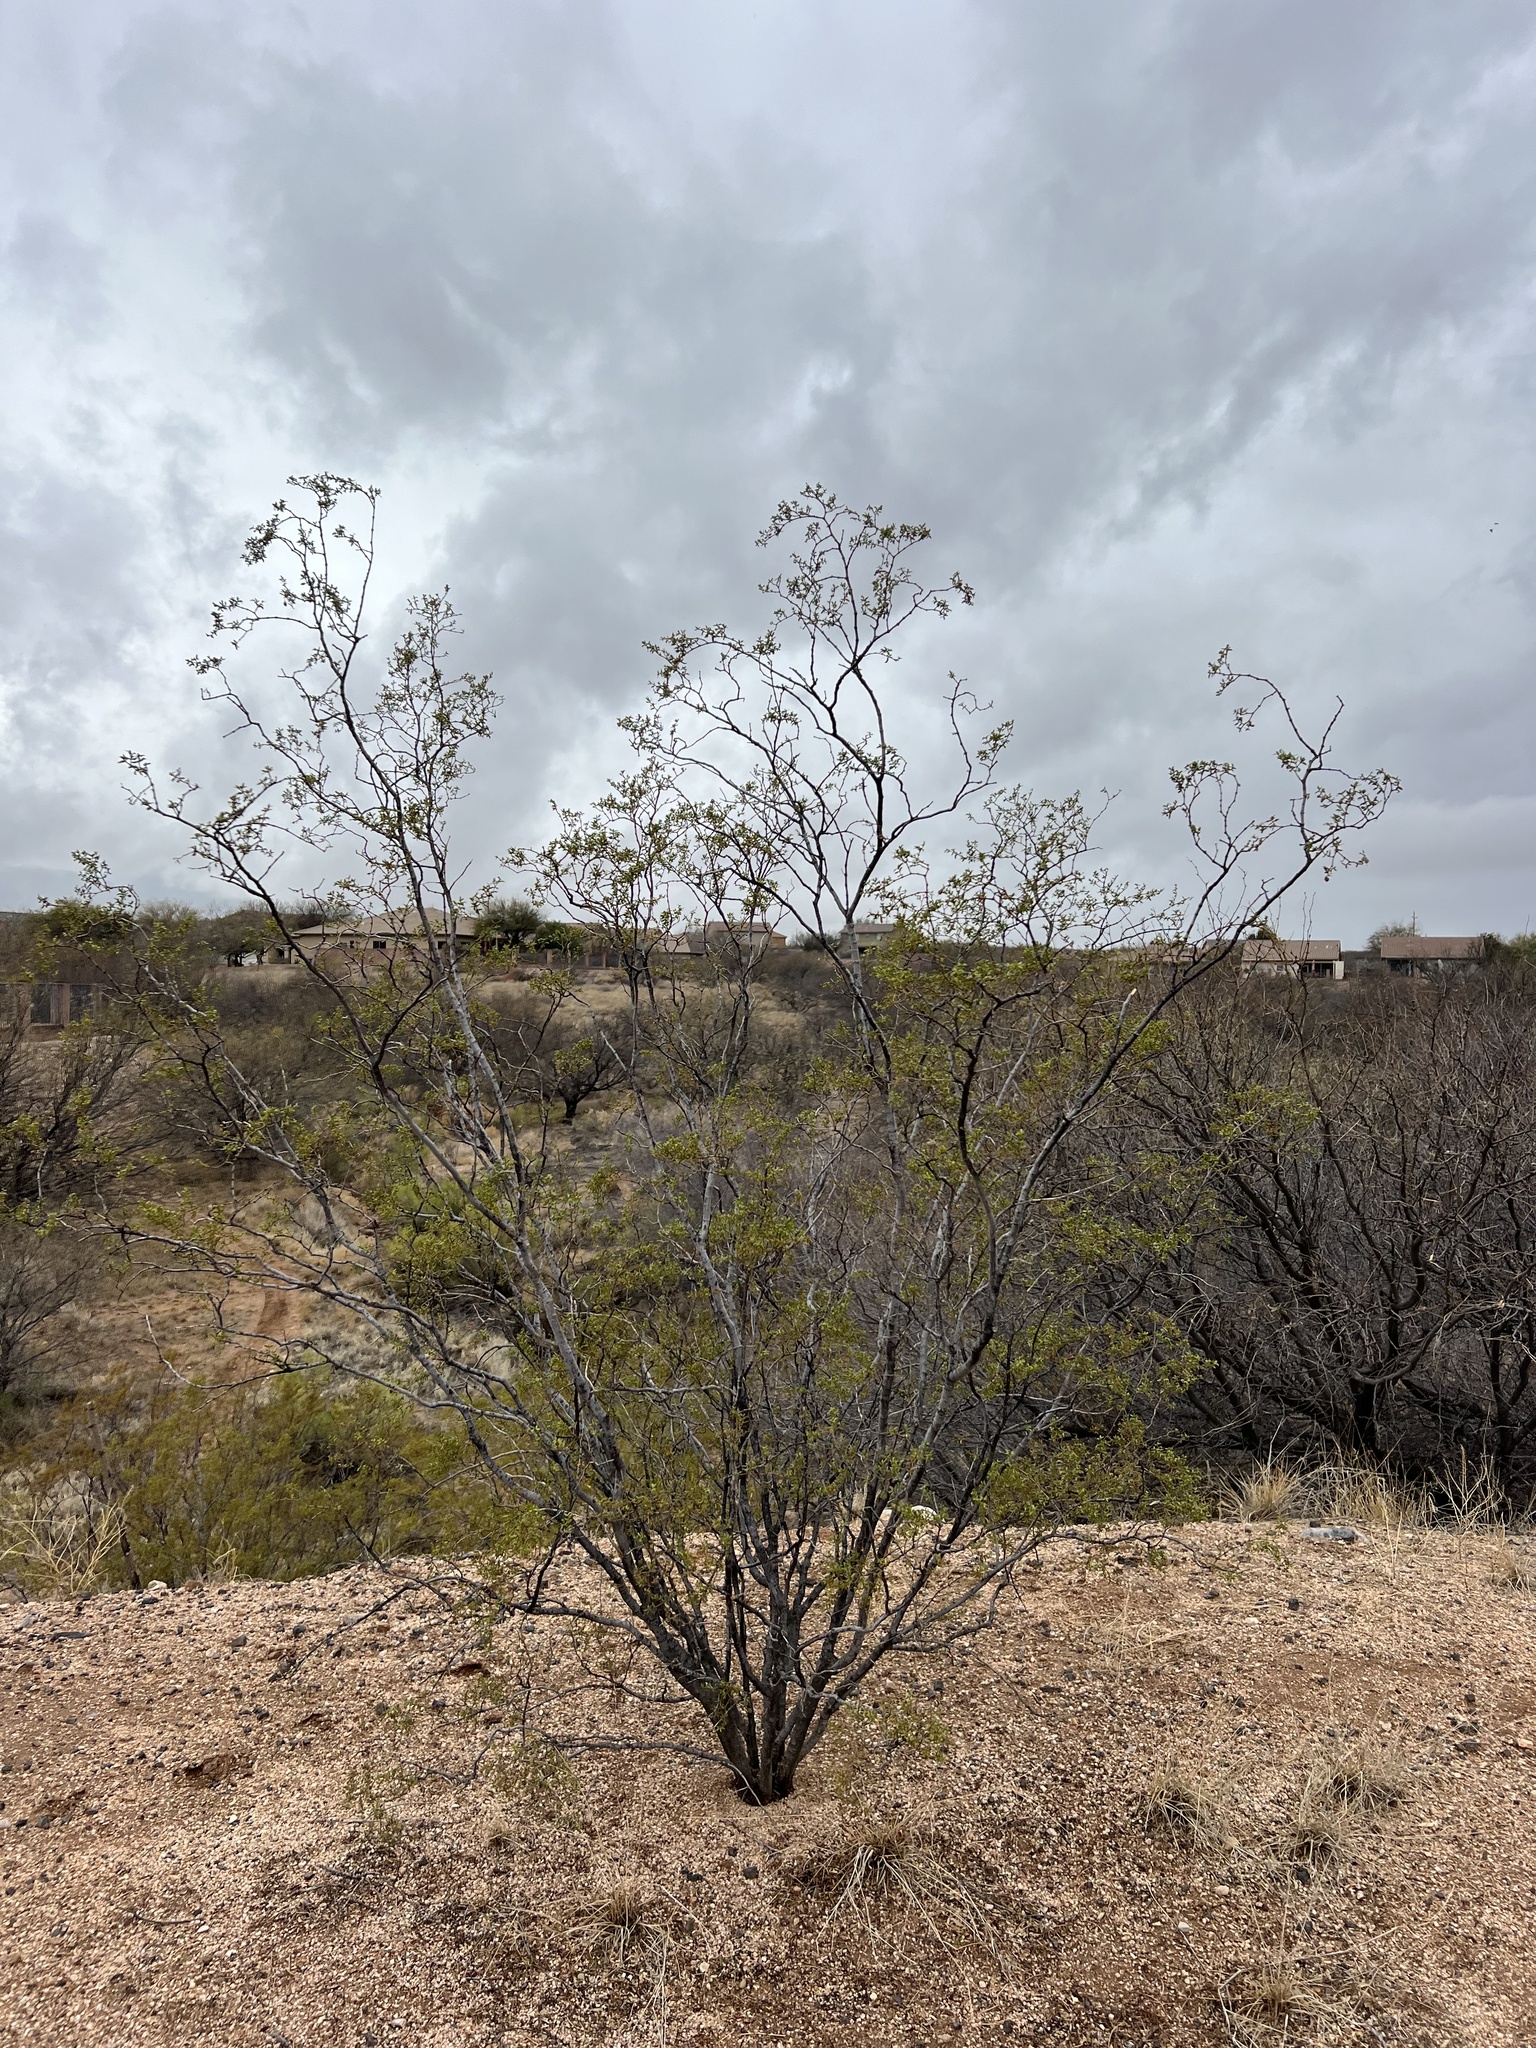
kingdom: Plantae
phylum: Tracheophyta
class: Magnoliopsida
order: Zygophyllales
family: Zygophyllaceae
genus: Larrea
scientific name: Larrea tridentata
